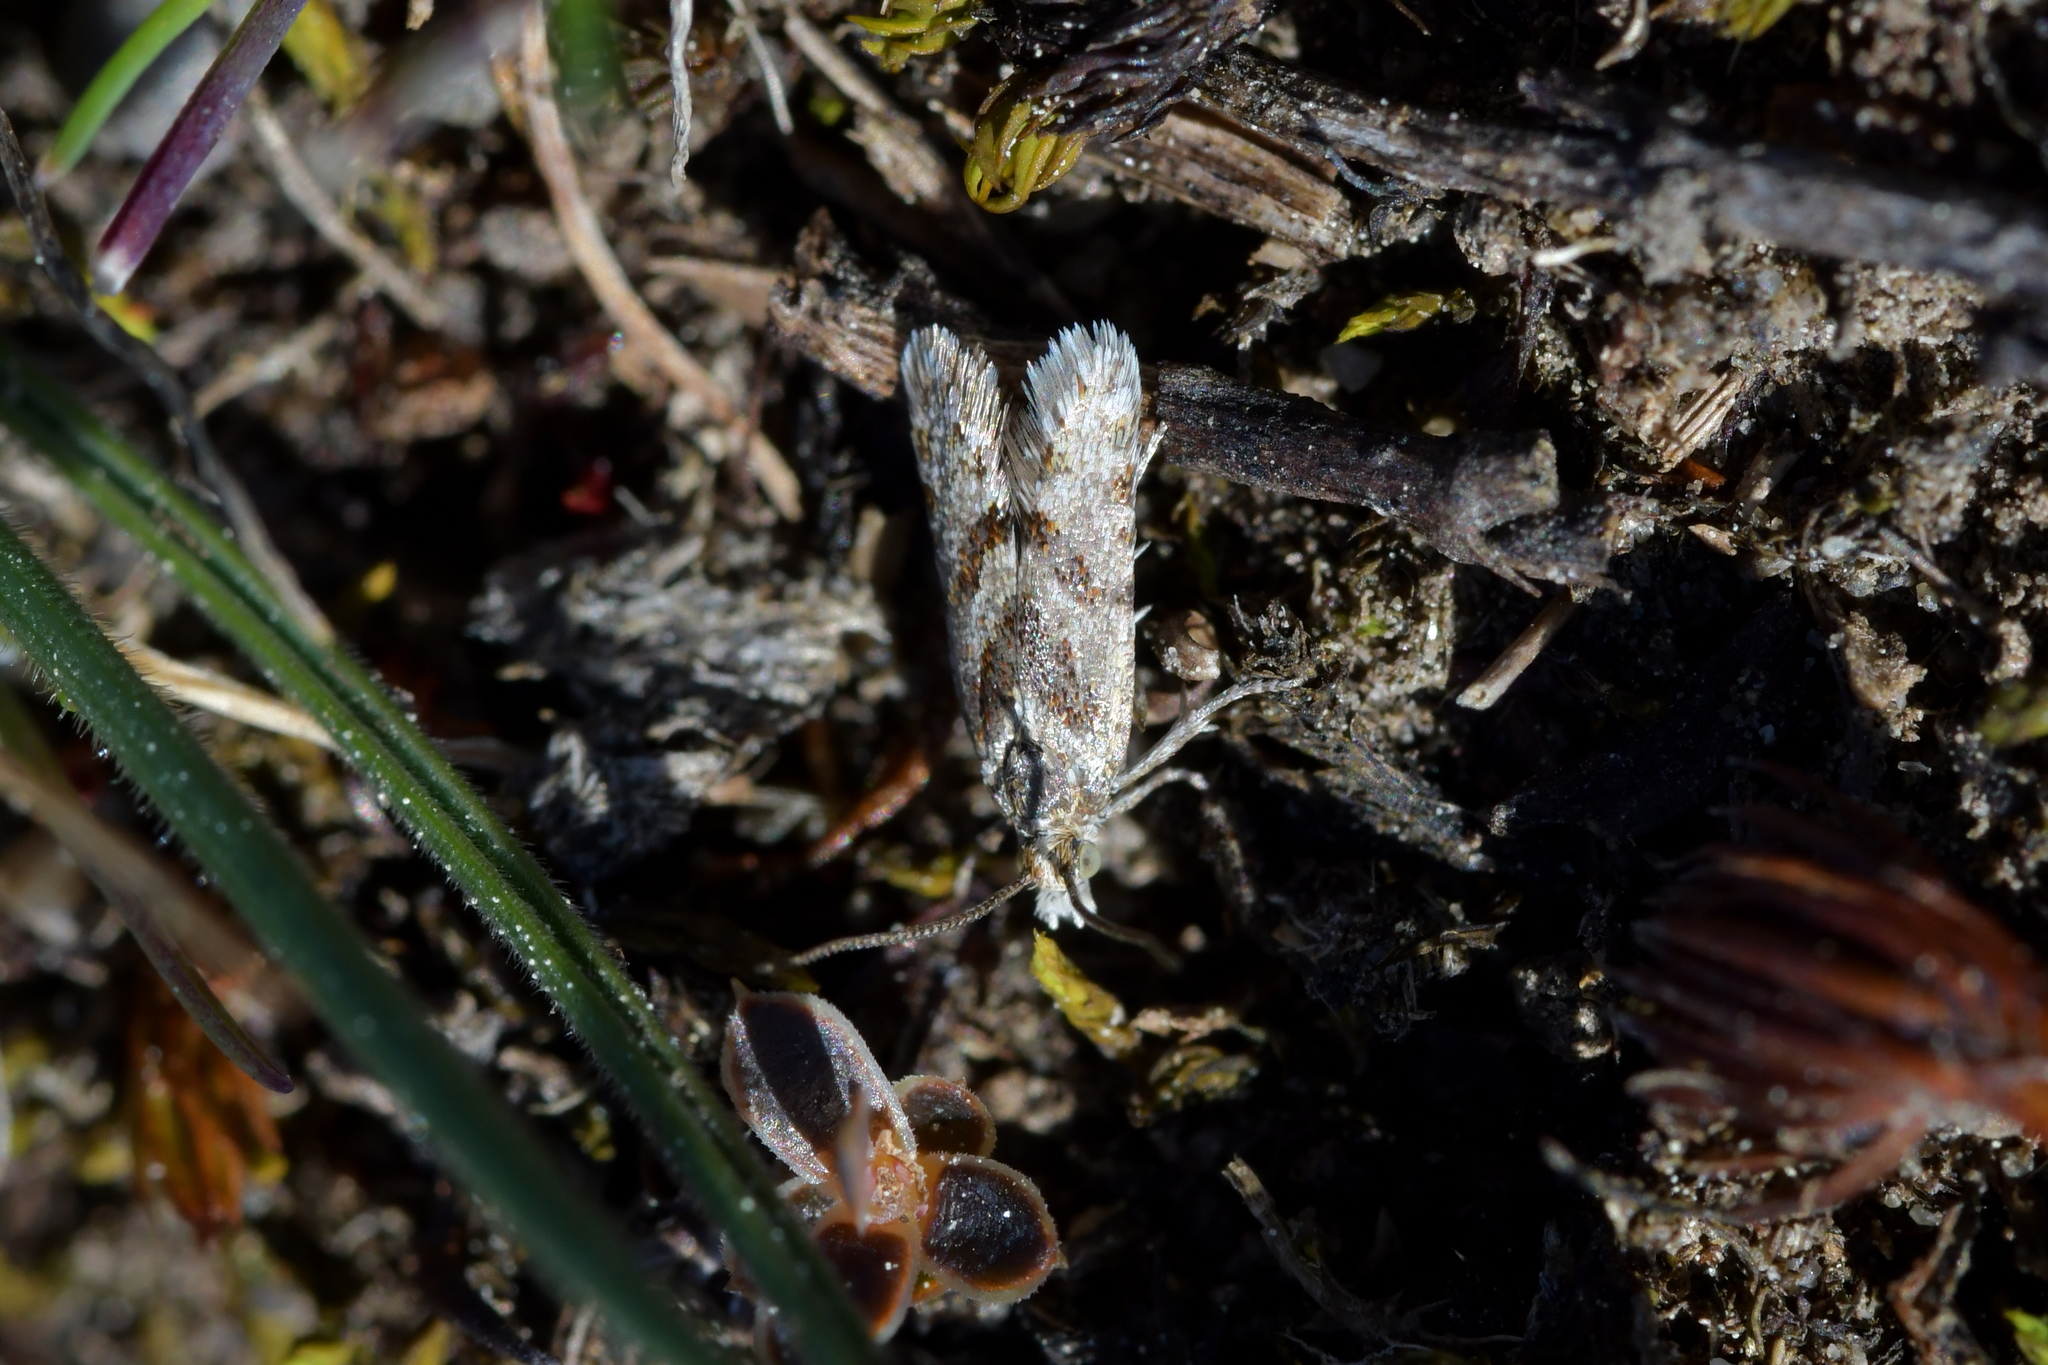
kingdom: Animalia
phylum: Arthropoda
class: Insecta
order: Lepidoptera
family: Tortricidae
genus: Eurythecta
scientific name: Eurythecta robusta
